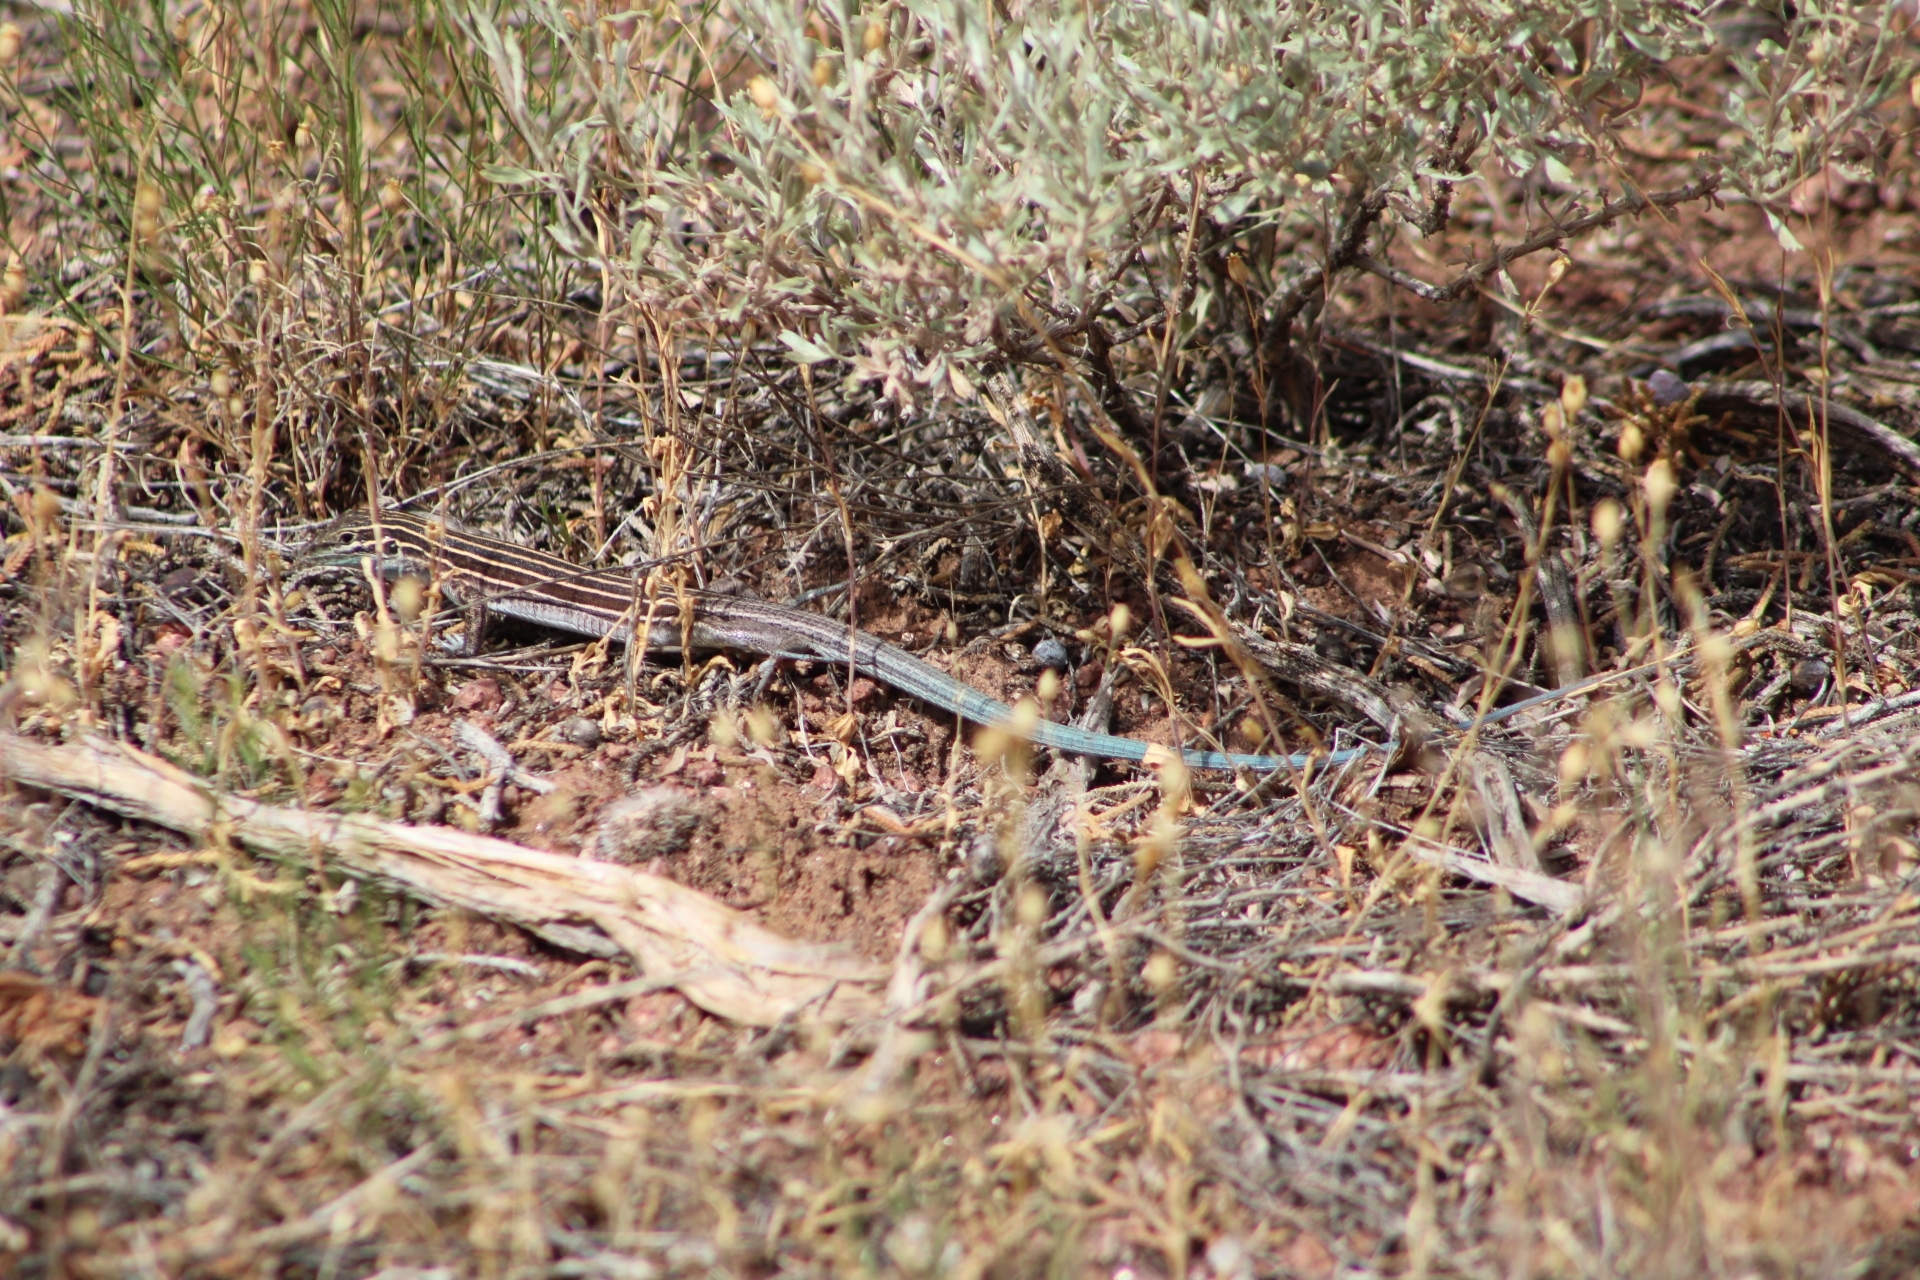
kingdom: Animalia
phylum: Chordata
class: Squamata
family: Teiidae
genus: Aspidoscelis
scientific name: Aspidoscelis velox
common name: Plateau striped whiptail
